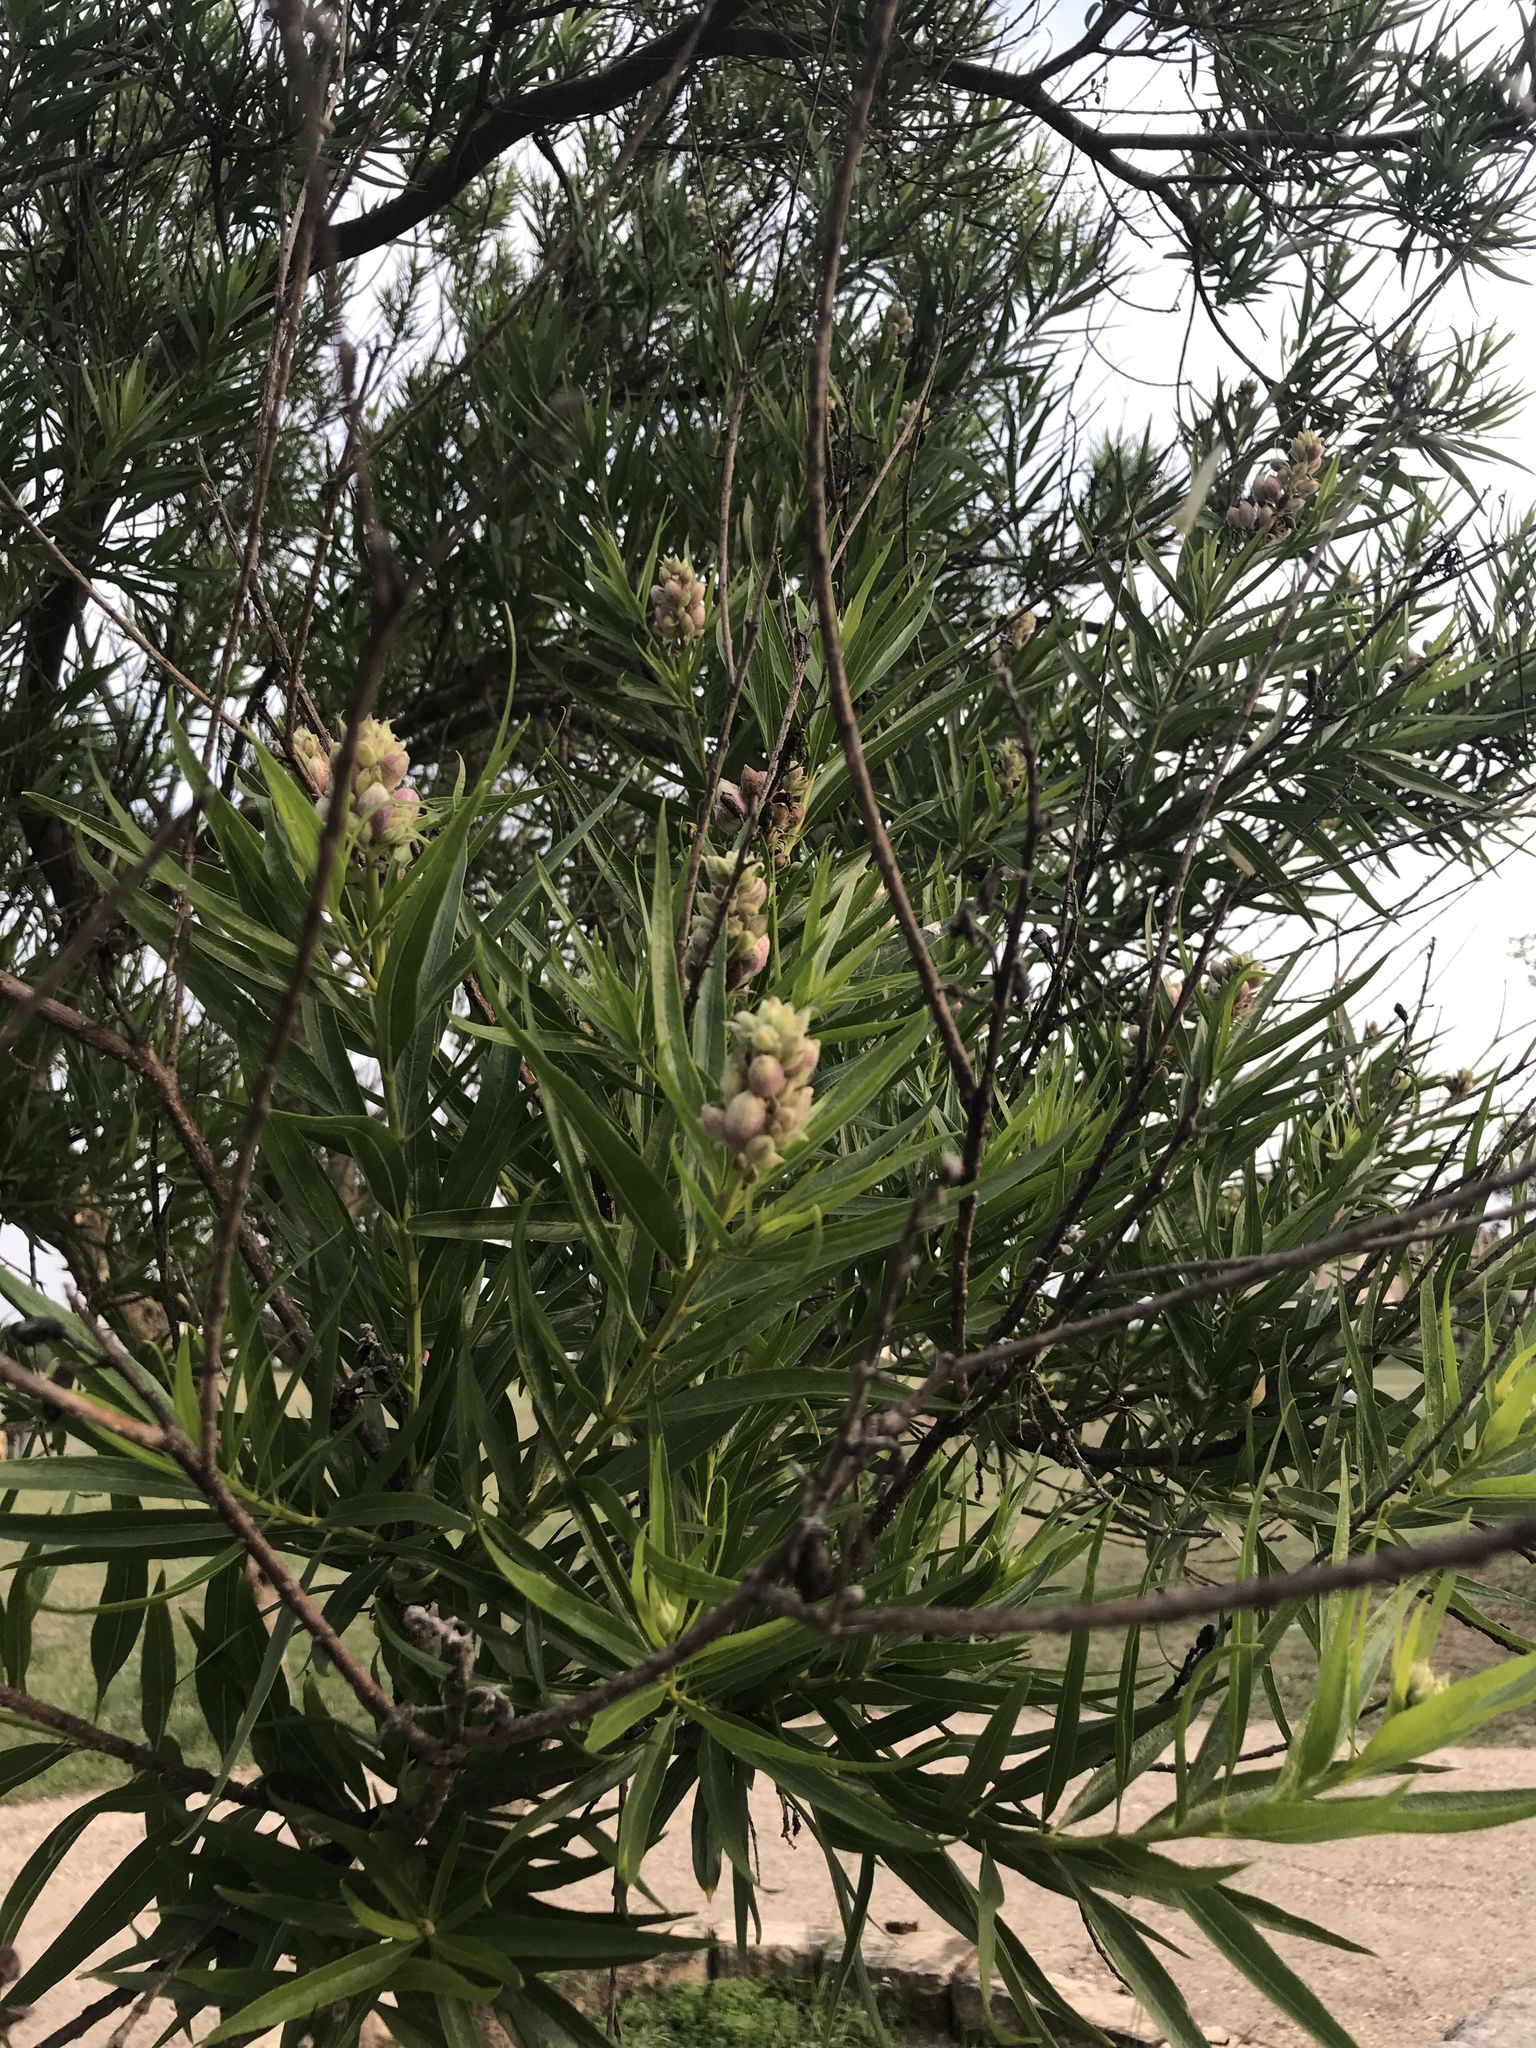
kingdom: Plantae
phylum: Tracheophyta
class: Magnoliopsida
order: Lamiales
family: Bignoniaceae
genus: Chilopsis
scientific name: Chilopsis linearis
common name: Desert-willow
